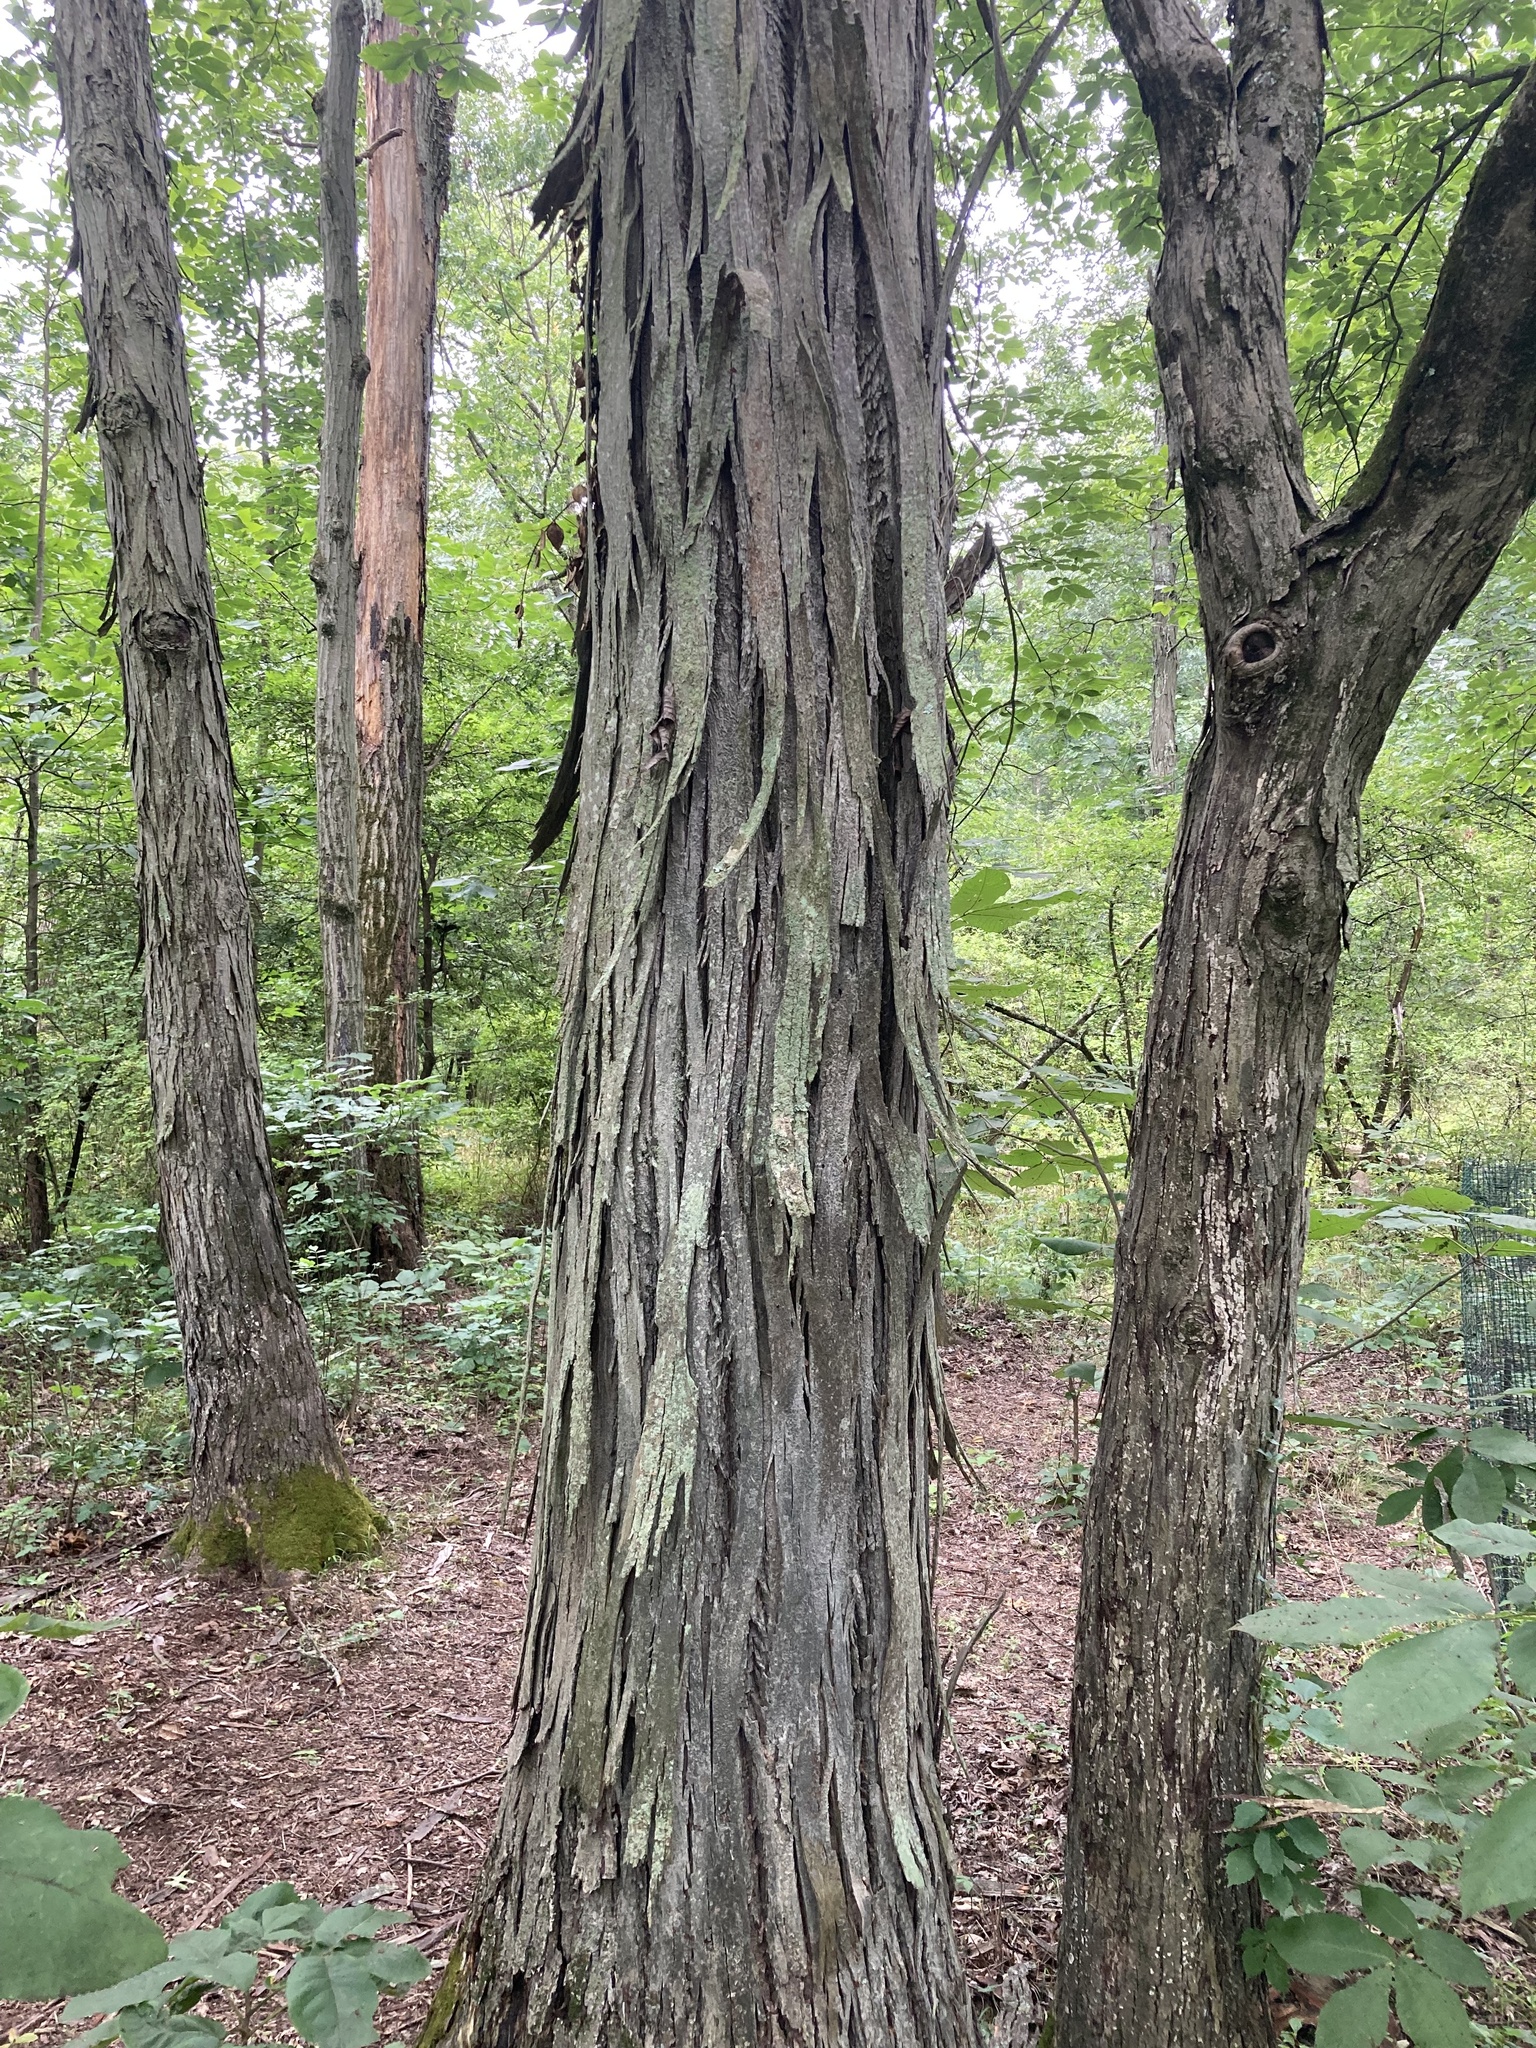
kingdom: Plantae
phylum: Tracheophyta
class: Magnoliopsida
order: Fagales
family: Juglandaceae
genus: Carya
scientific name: Carya ovata
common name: Shagbark hickory
